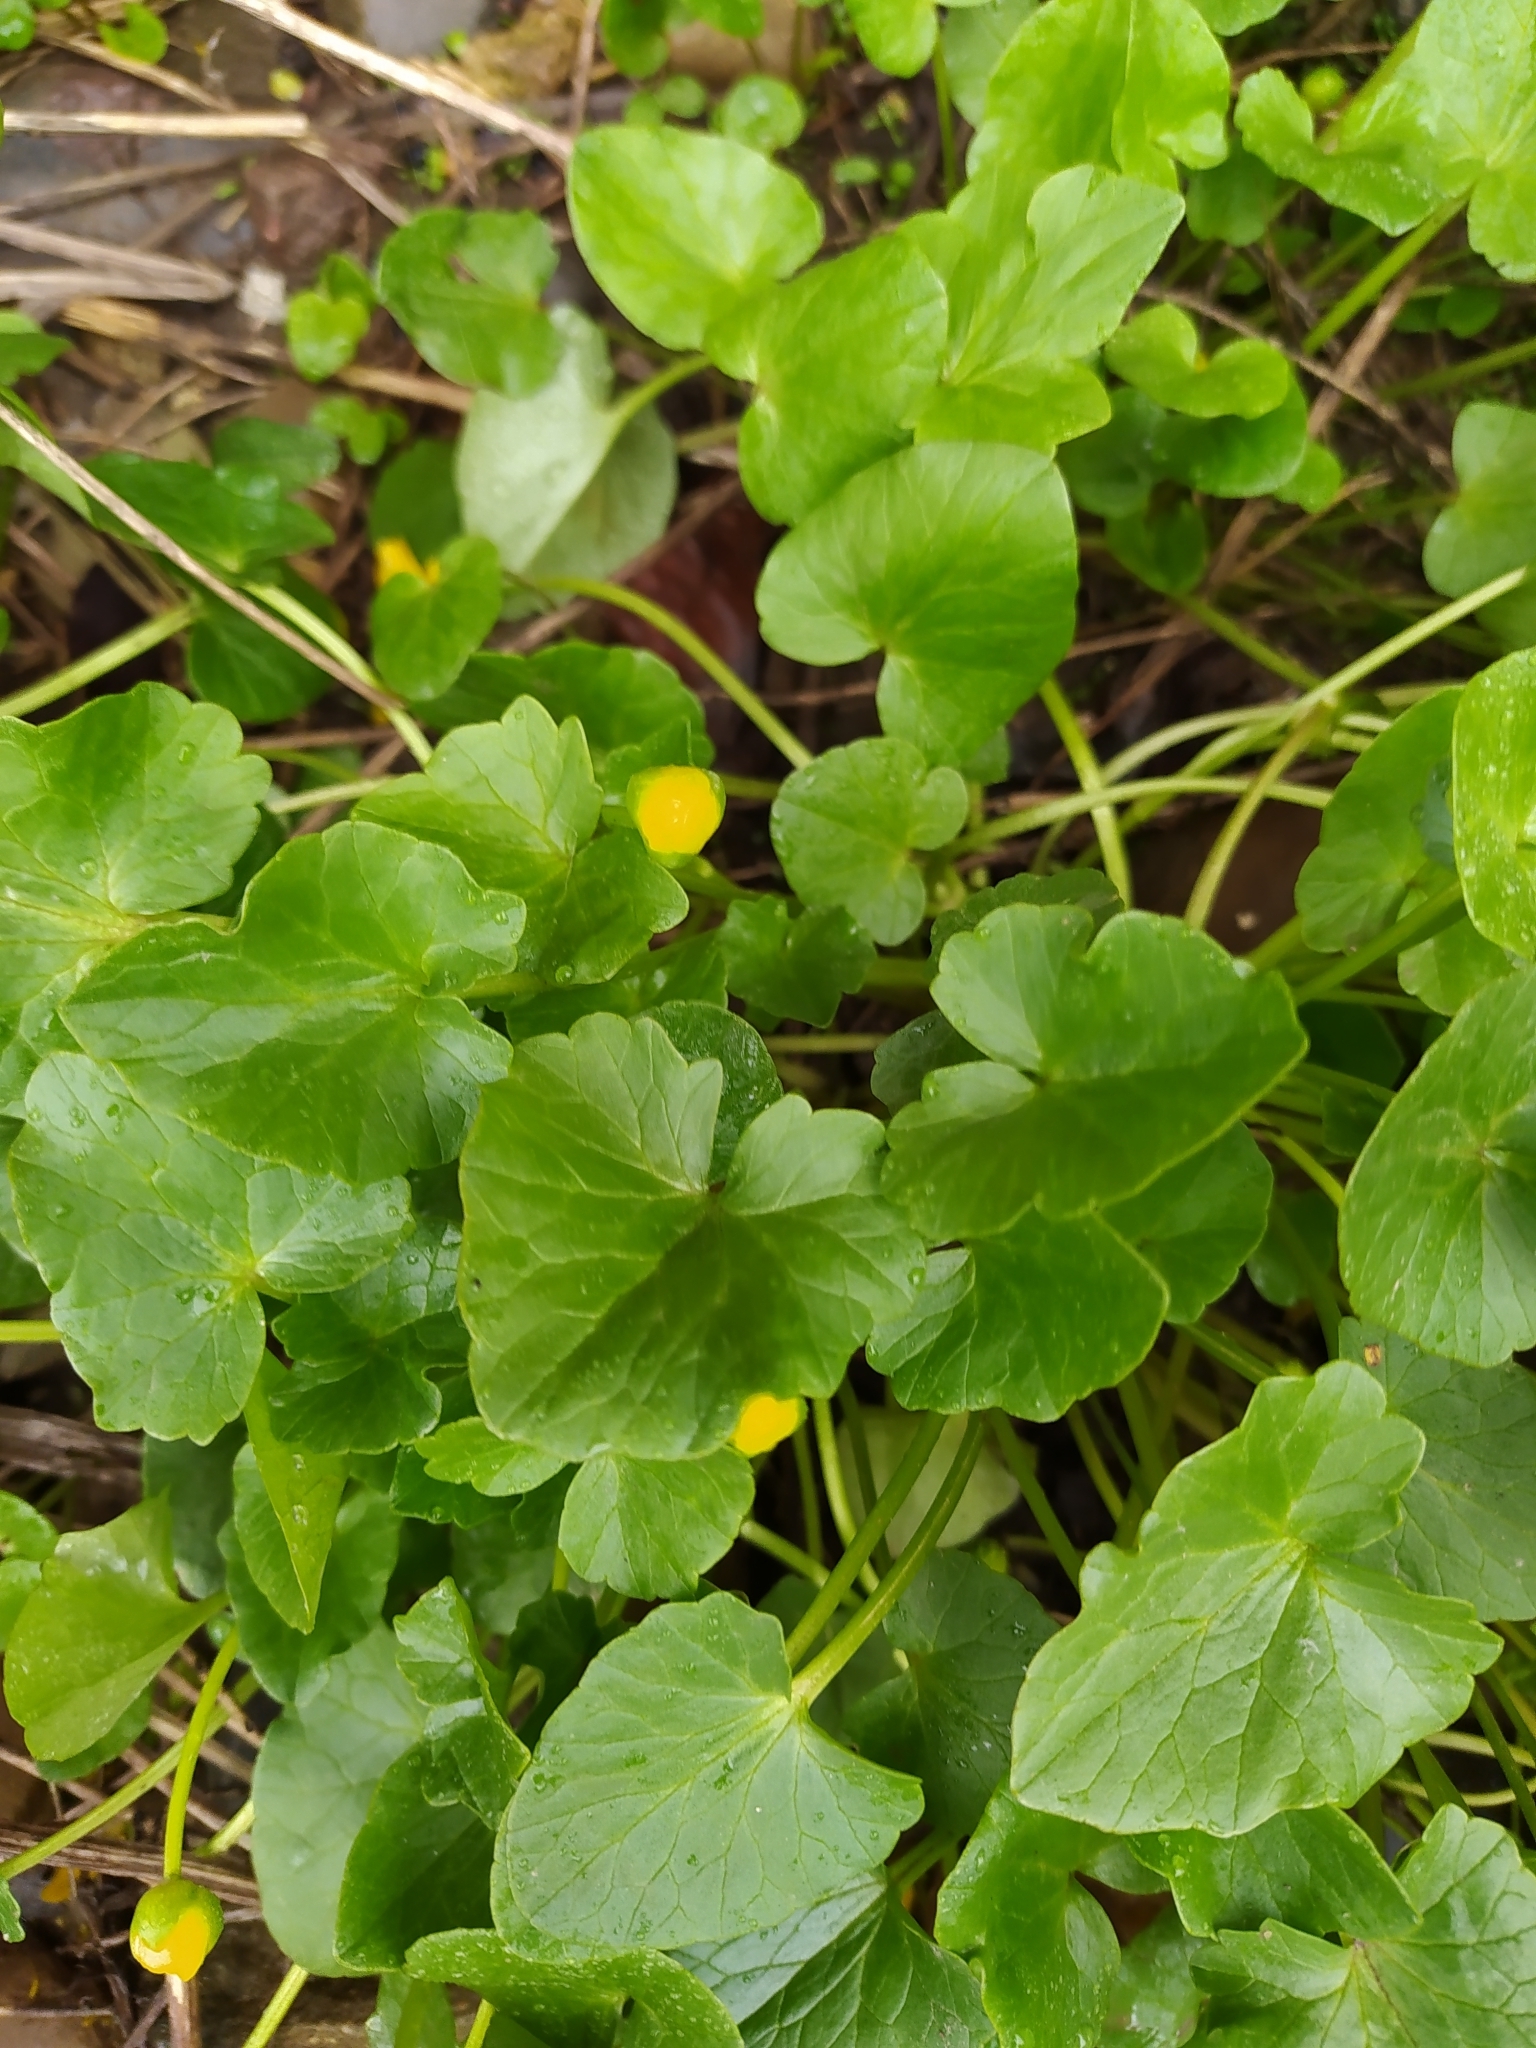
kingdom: Plantae
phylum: Tracheophyta
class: Magnoliopsida
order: Ranunculales
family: Ranunculaceae
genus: Ficaria
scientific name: Ficaria verna
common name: Lesser celandine
